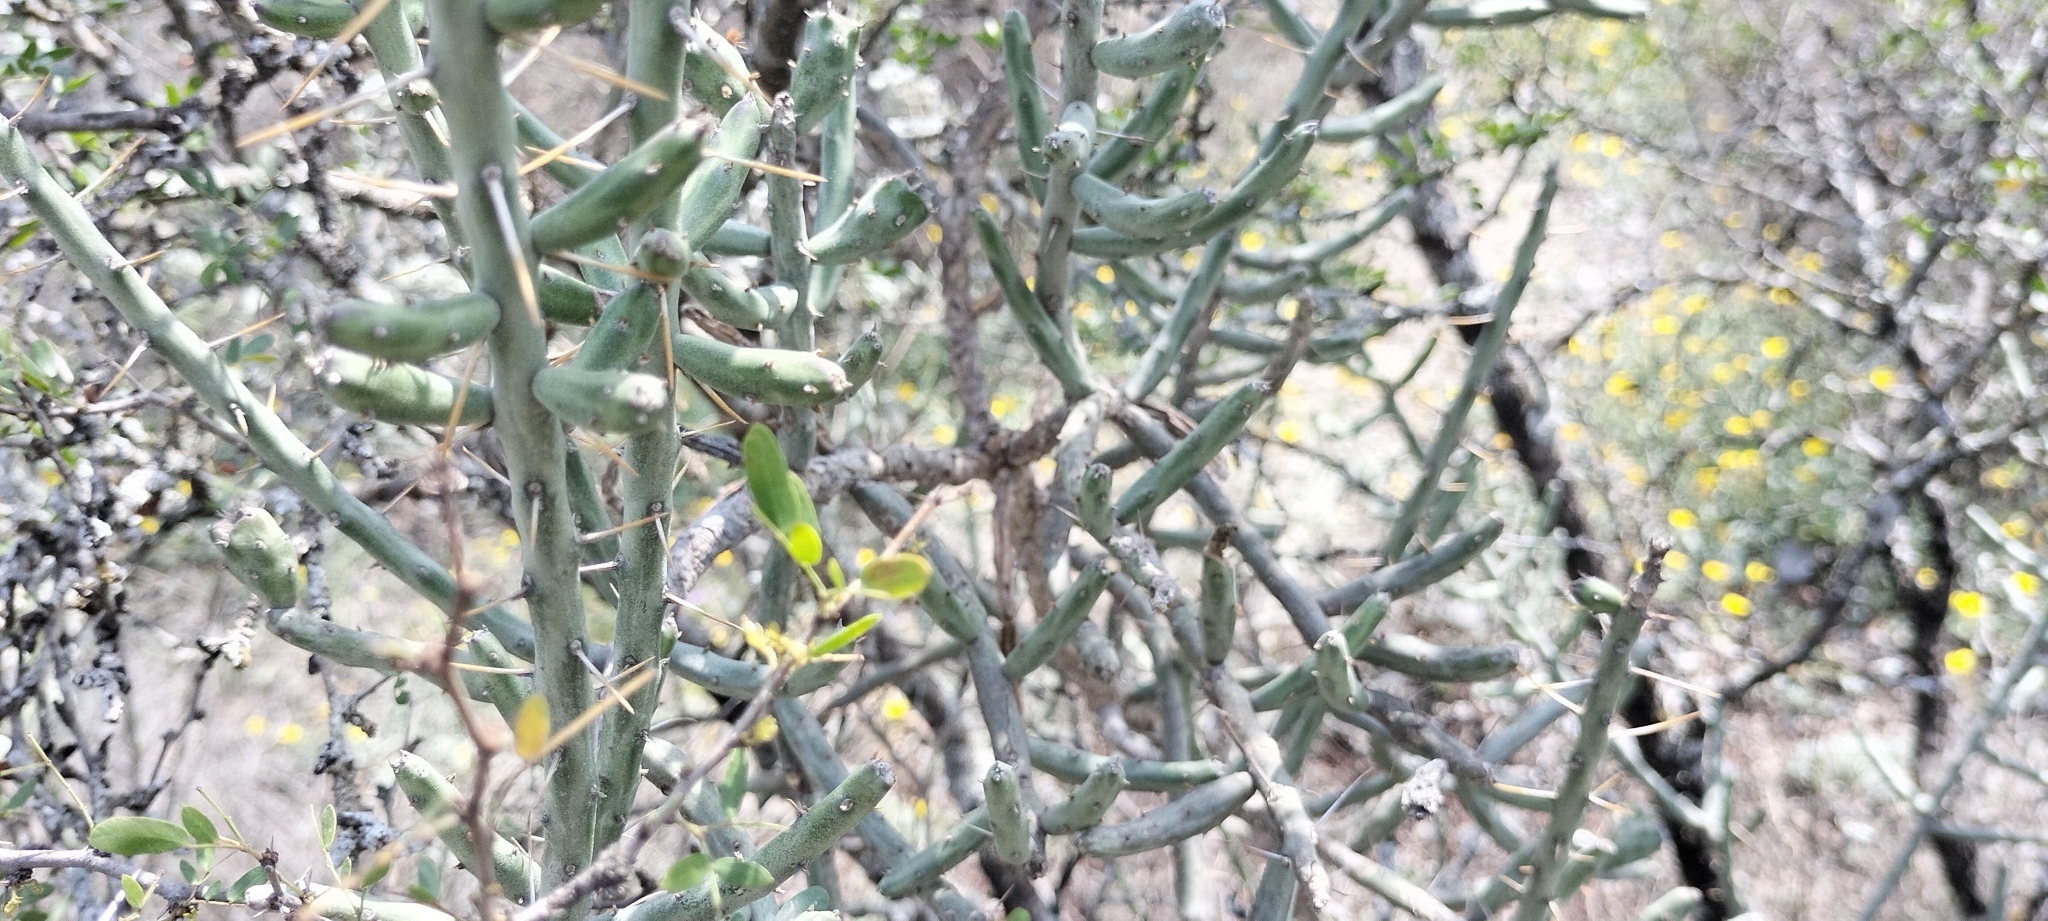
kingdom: Plantae
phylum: Tracheophyta
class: Magnoliopsida
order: Caryophyllales
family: Cactaceae
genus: Cylindropuntia
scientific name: Cylindropuntia leptocaulis
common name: Christmas cactus
